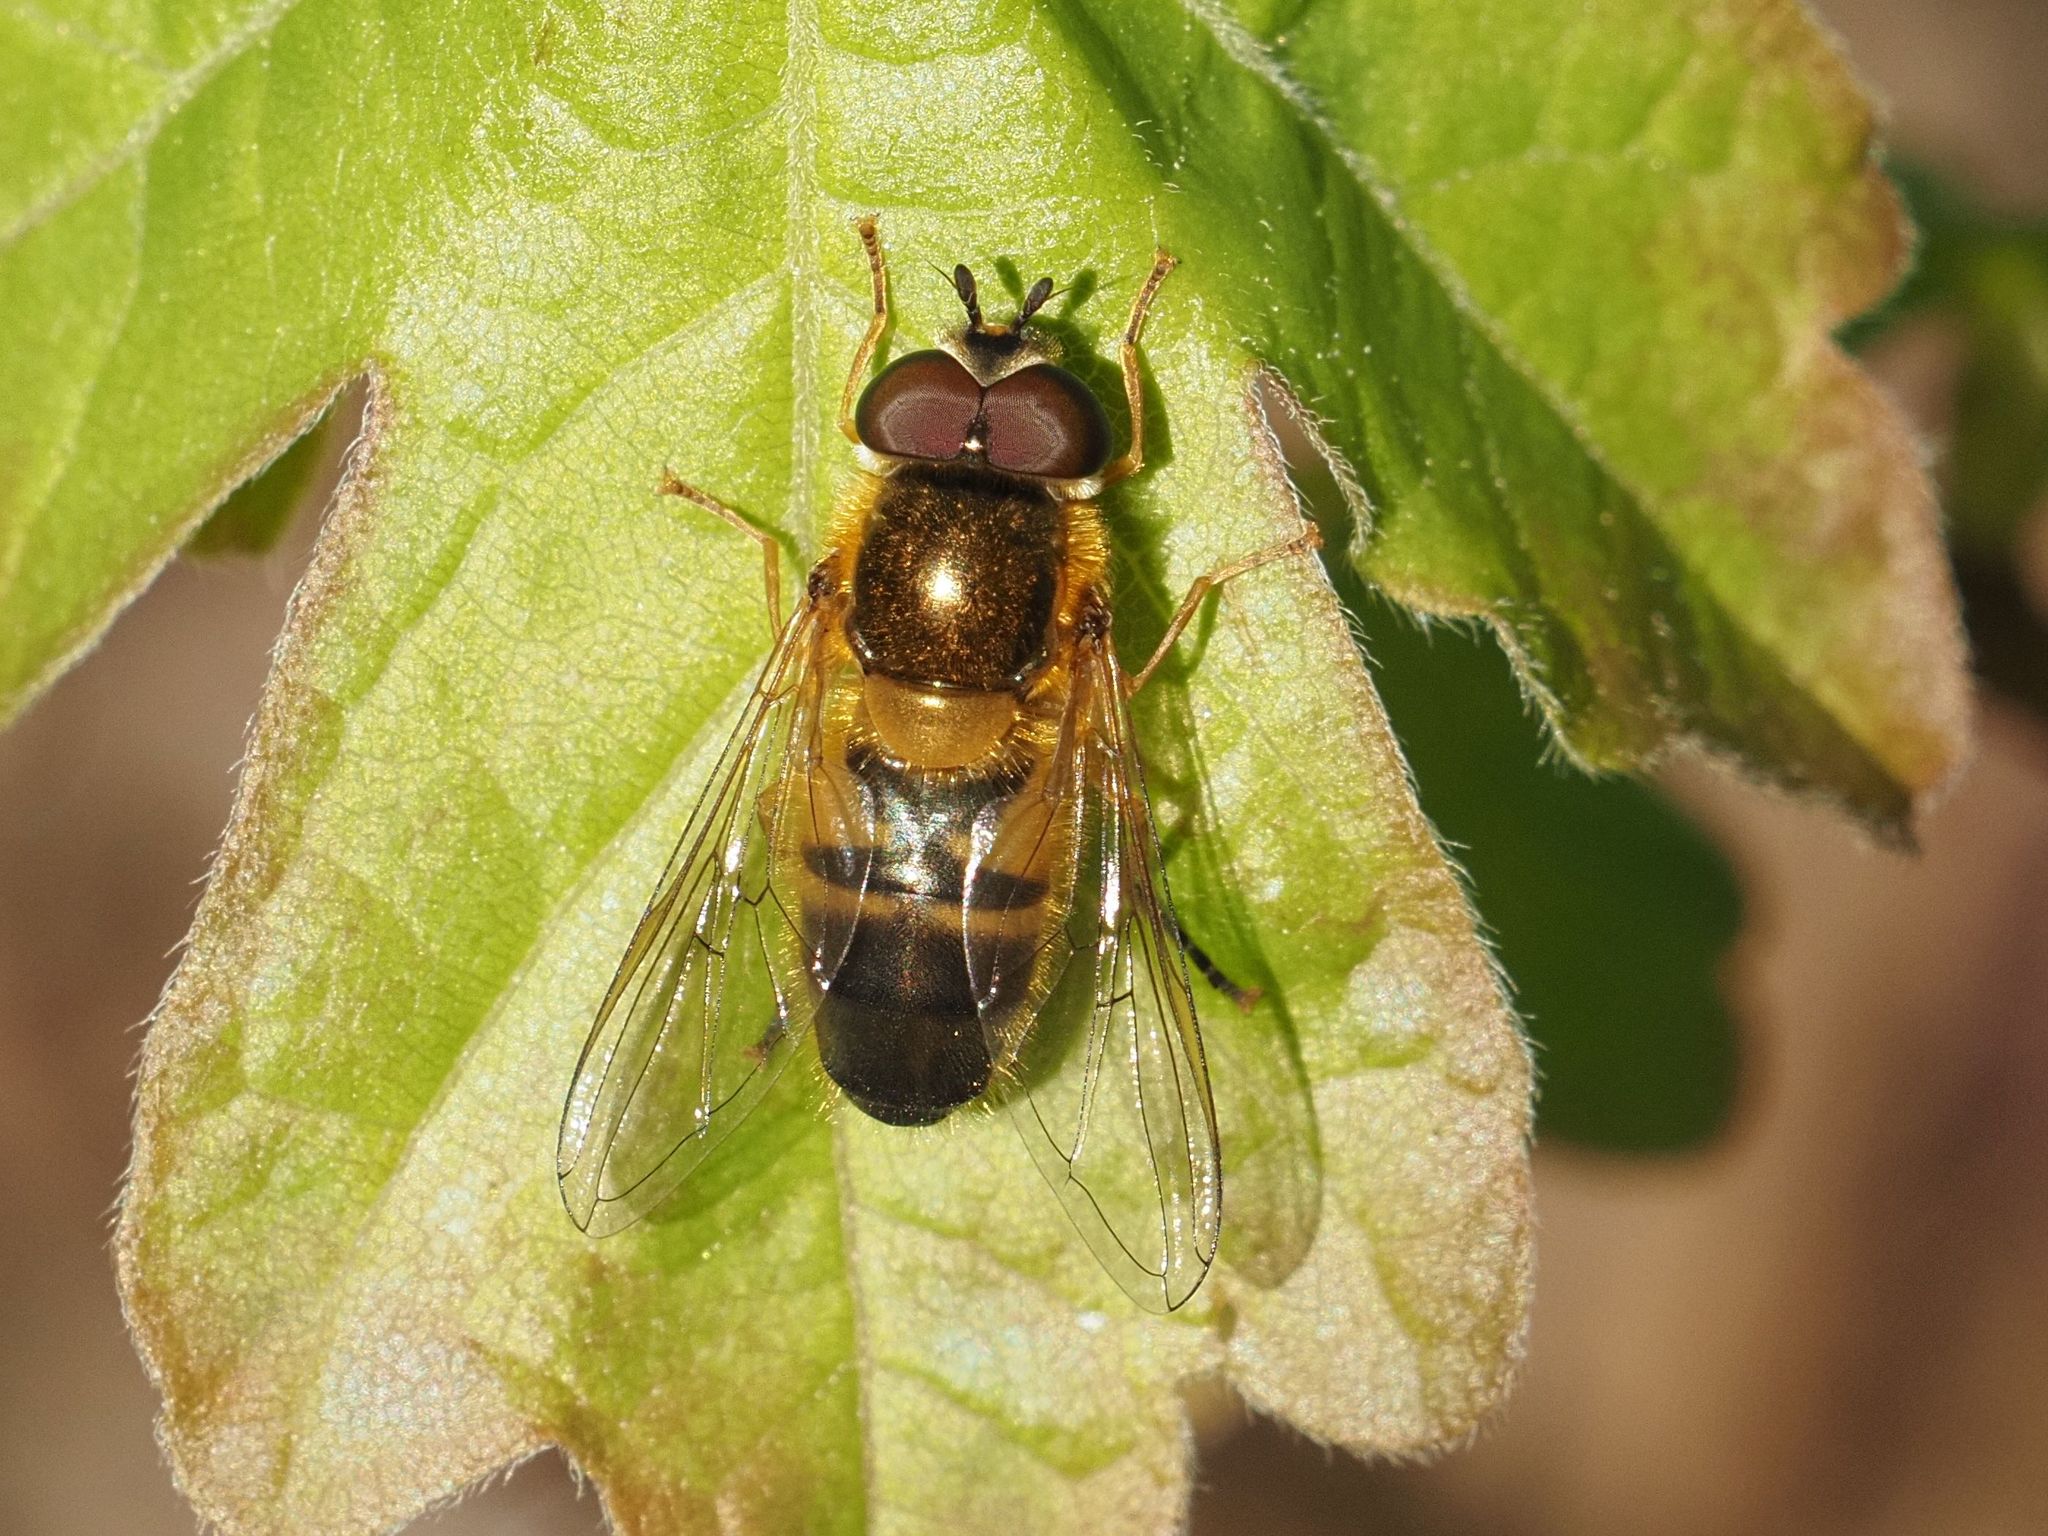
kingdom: Animalia
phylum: Arthropoda
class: Insecta
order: Diptera
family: Syrphidae
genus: Epistrophe
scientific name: Epistrophe eligans
